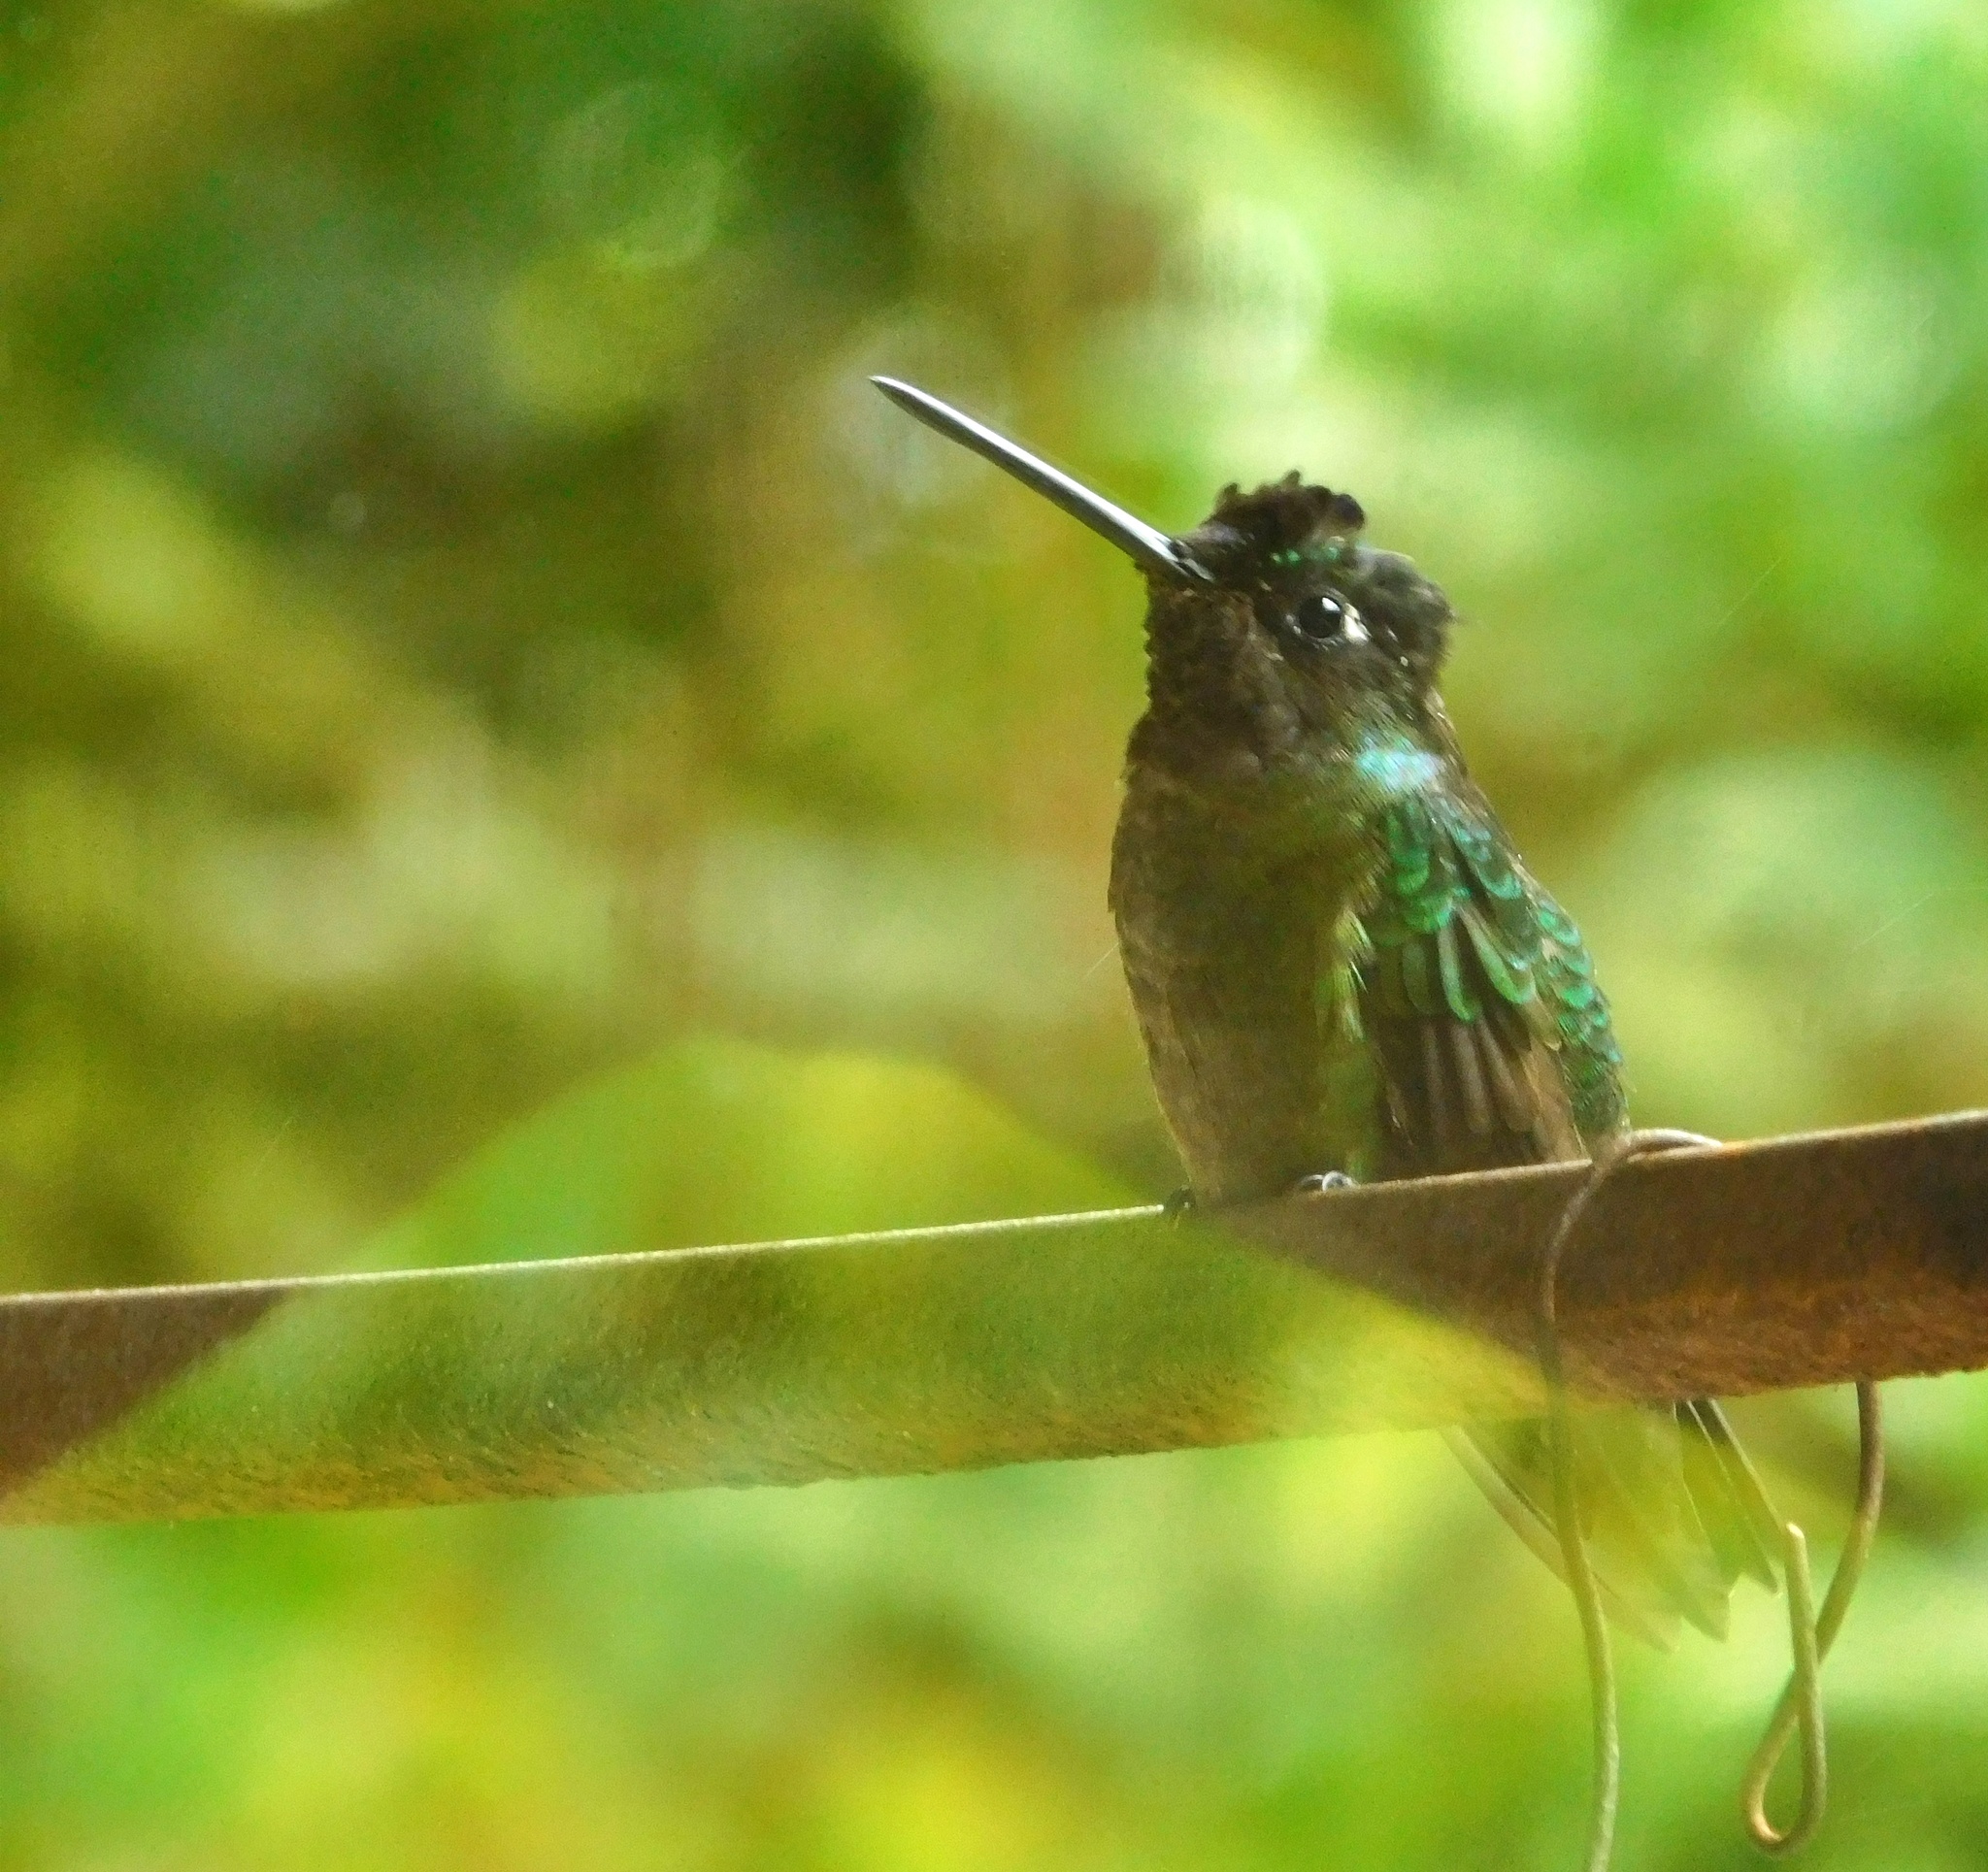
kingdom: Animalia
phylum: Chordata
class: Aves
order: Apodiformes
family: Trochilidae
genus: Eugenes
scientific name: Eugenes spectabilis
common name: Talamanca hummingbird
